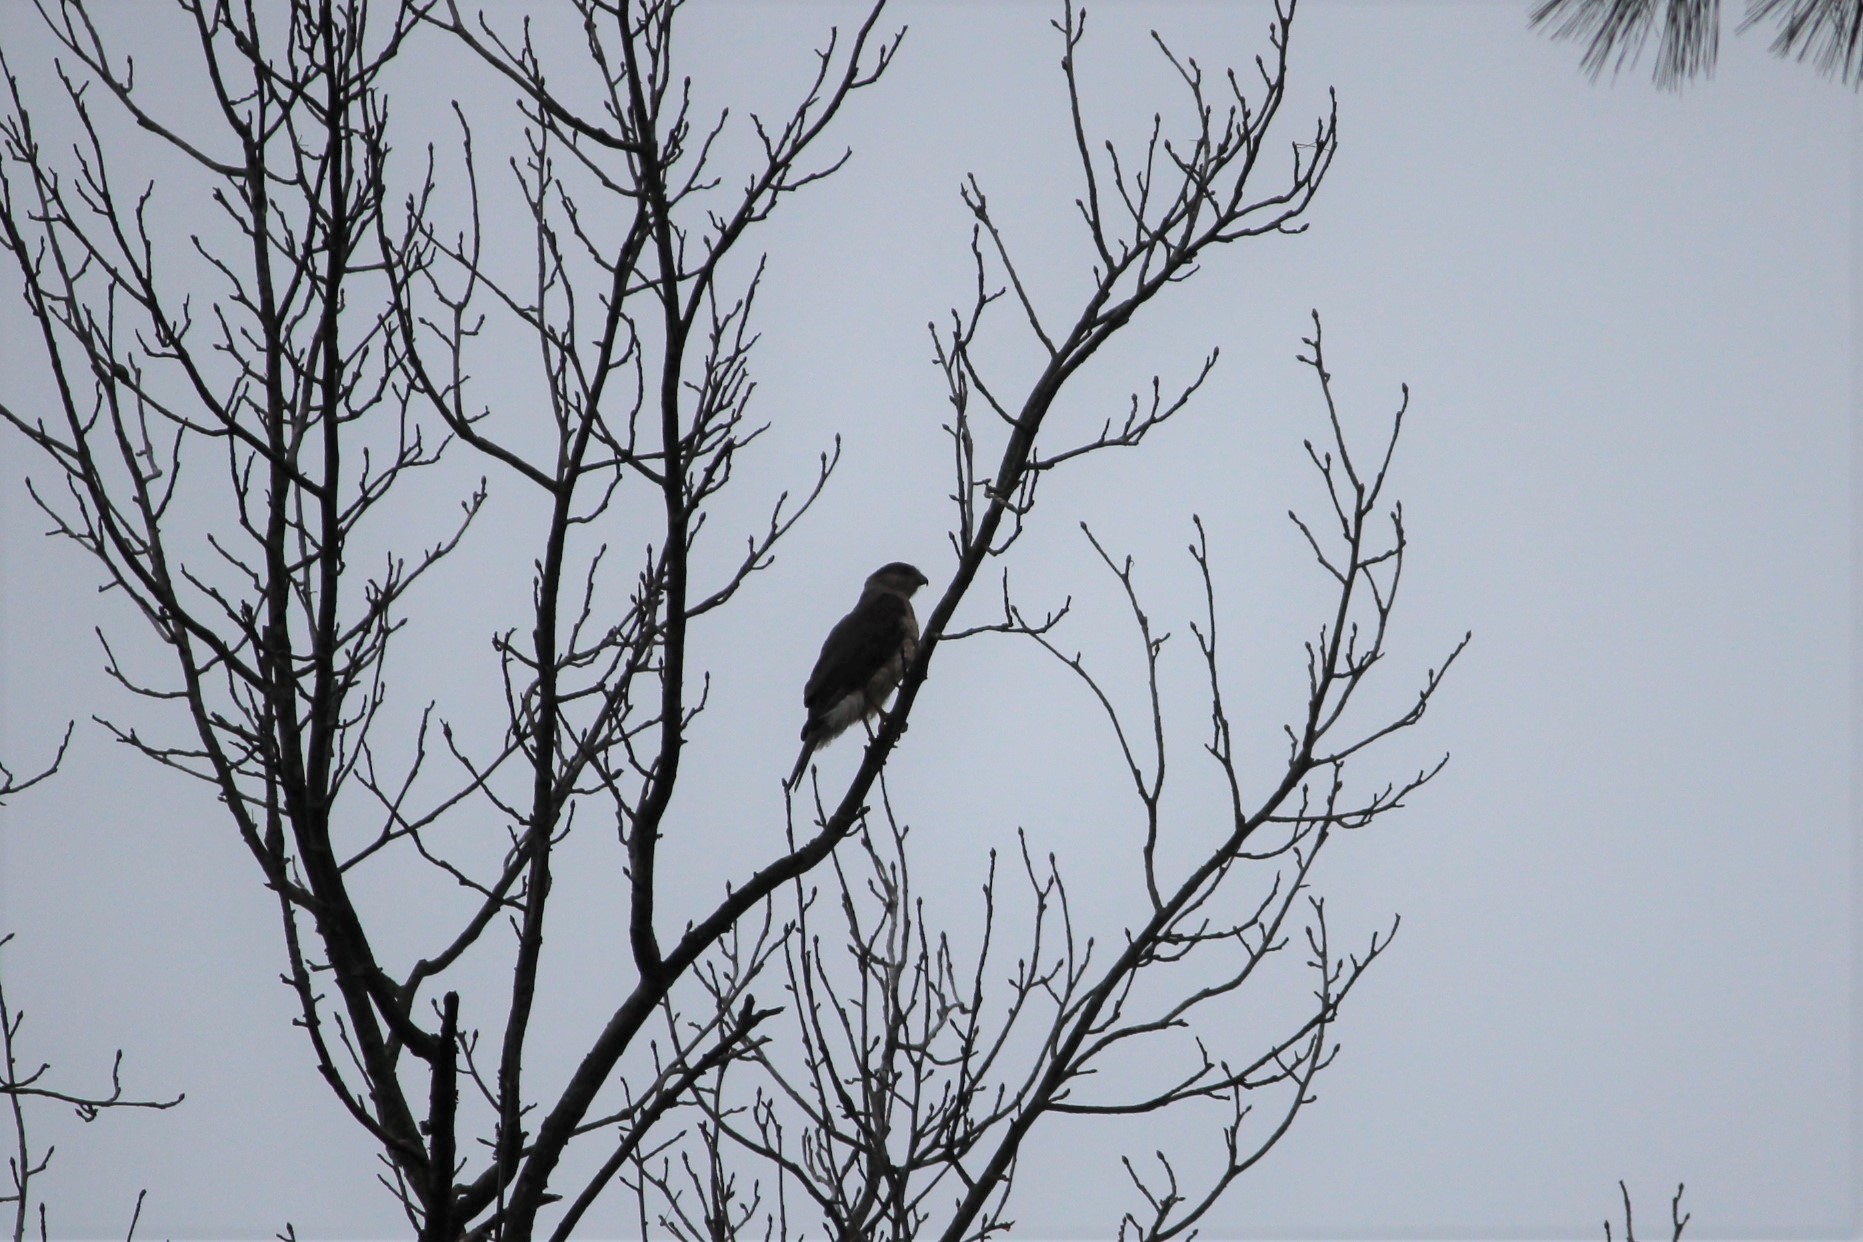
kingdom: Animalia
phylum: Chordata
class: Aves
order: Accipitriformes
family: Accipitridae
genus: Accipiter
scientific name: Accipiter cooperii
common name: Cooper's hawk
